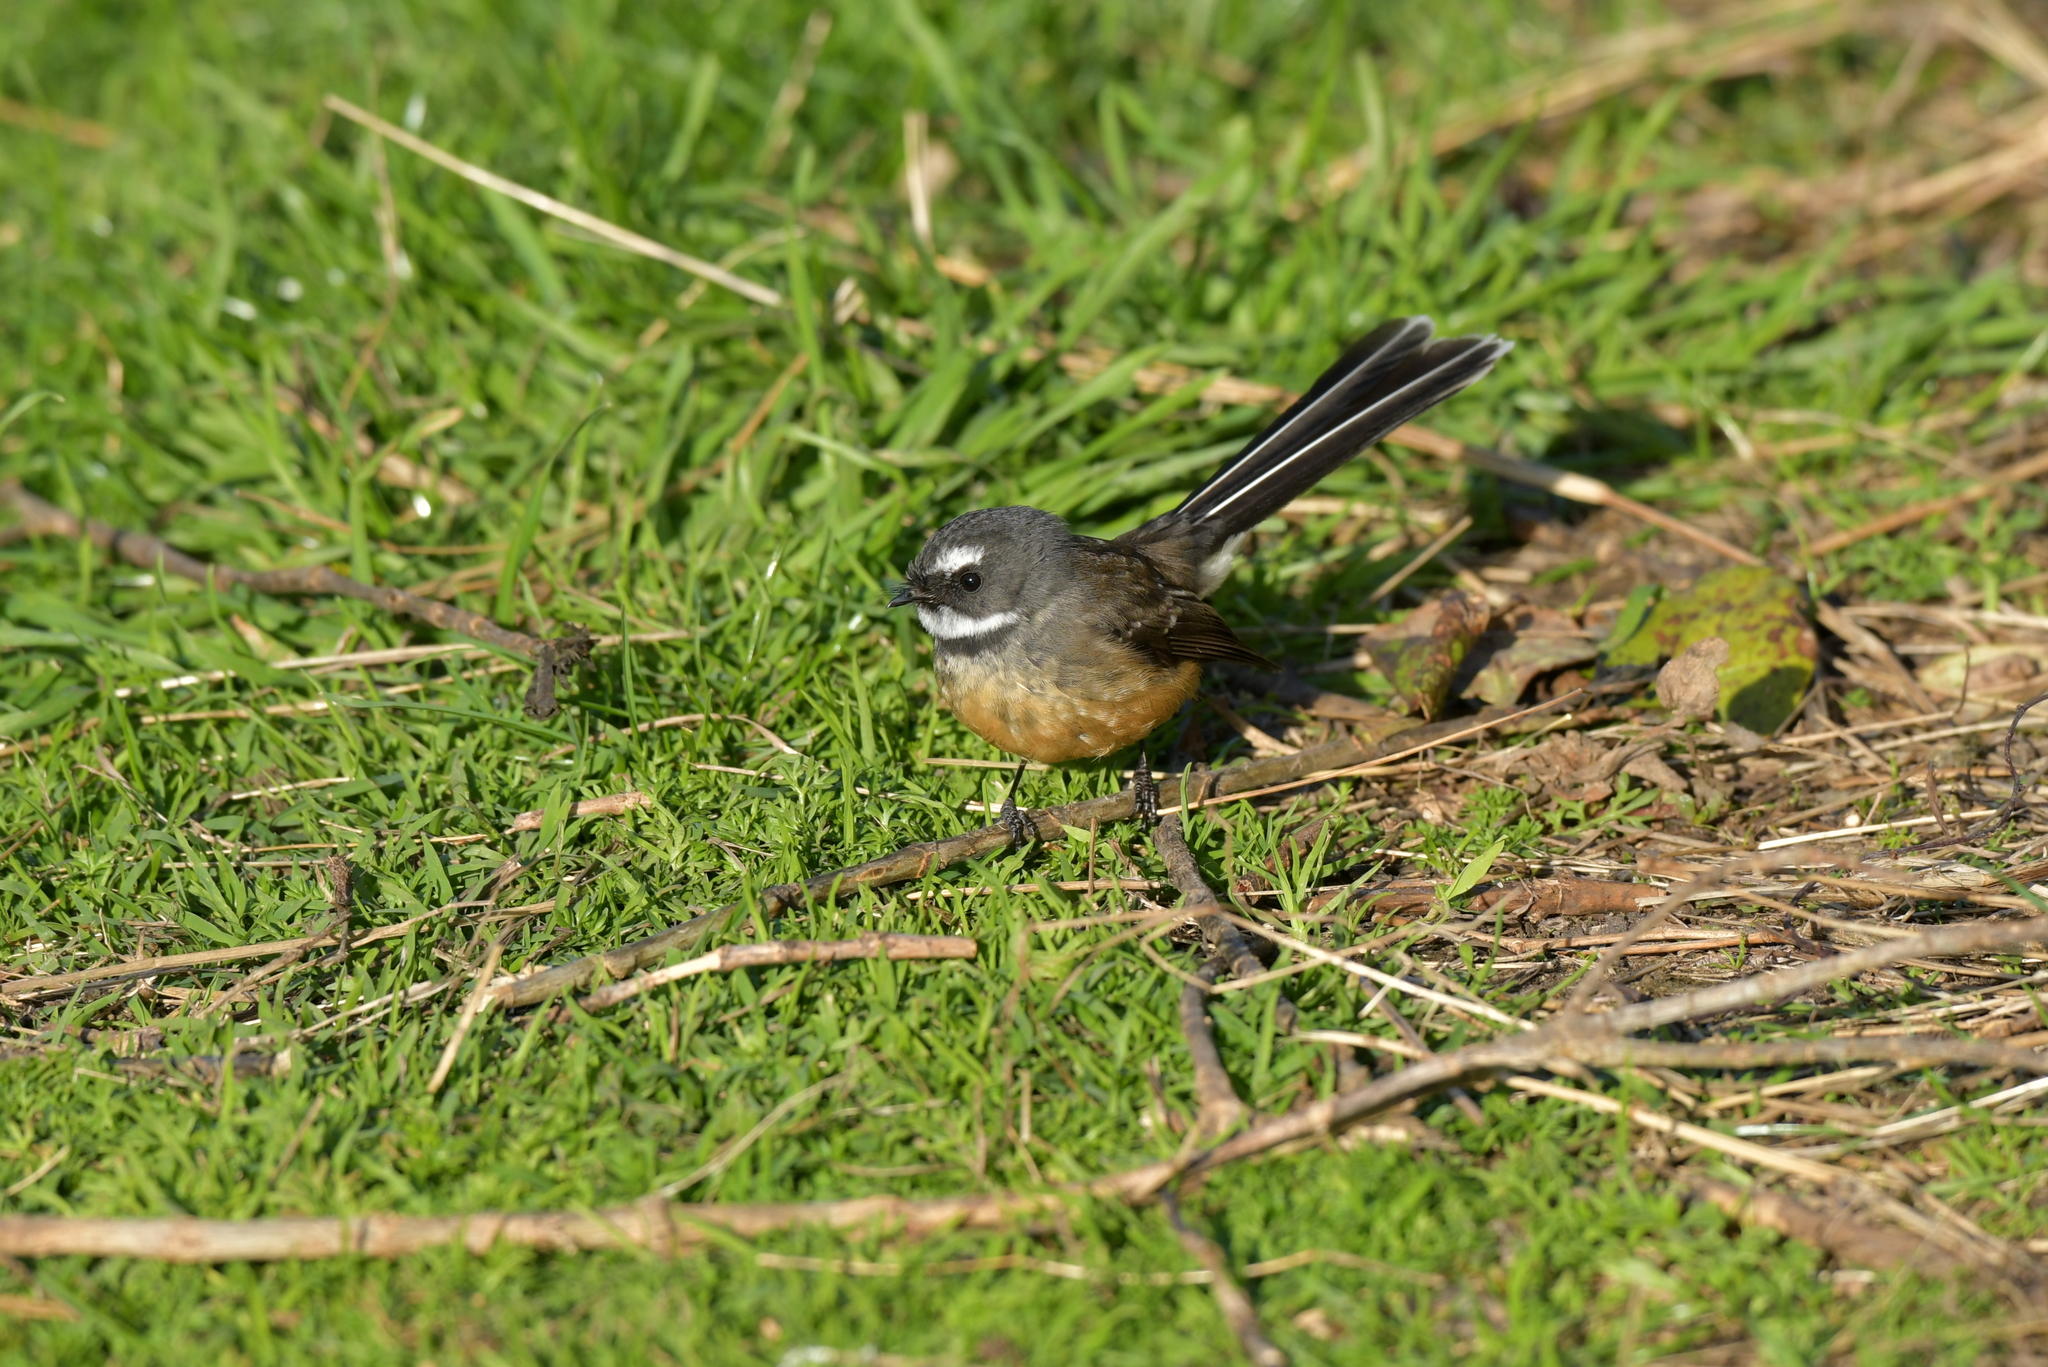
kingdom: Animalia
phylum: Chordata
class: Aves
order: Passeriformes
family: Rhipiduridae
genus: Rhipidura
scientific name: Rhipidura fuliginosa
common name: New zealand fantail
